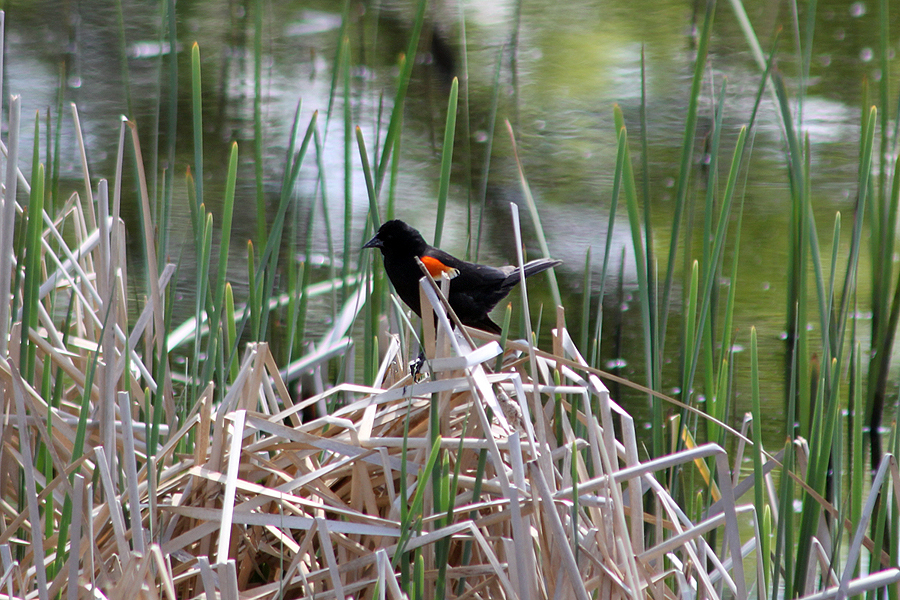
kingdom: Animalia
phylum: Chordata
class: Aves
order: Passeriformes
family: Icteridae
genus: Agelaius
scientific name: Agelaius phoeniceus
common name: Red-winged blackbird
